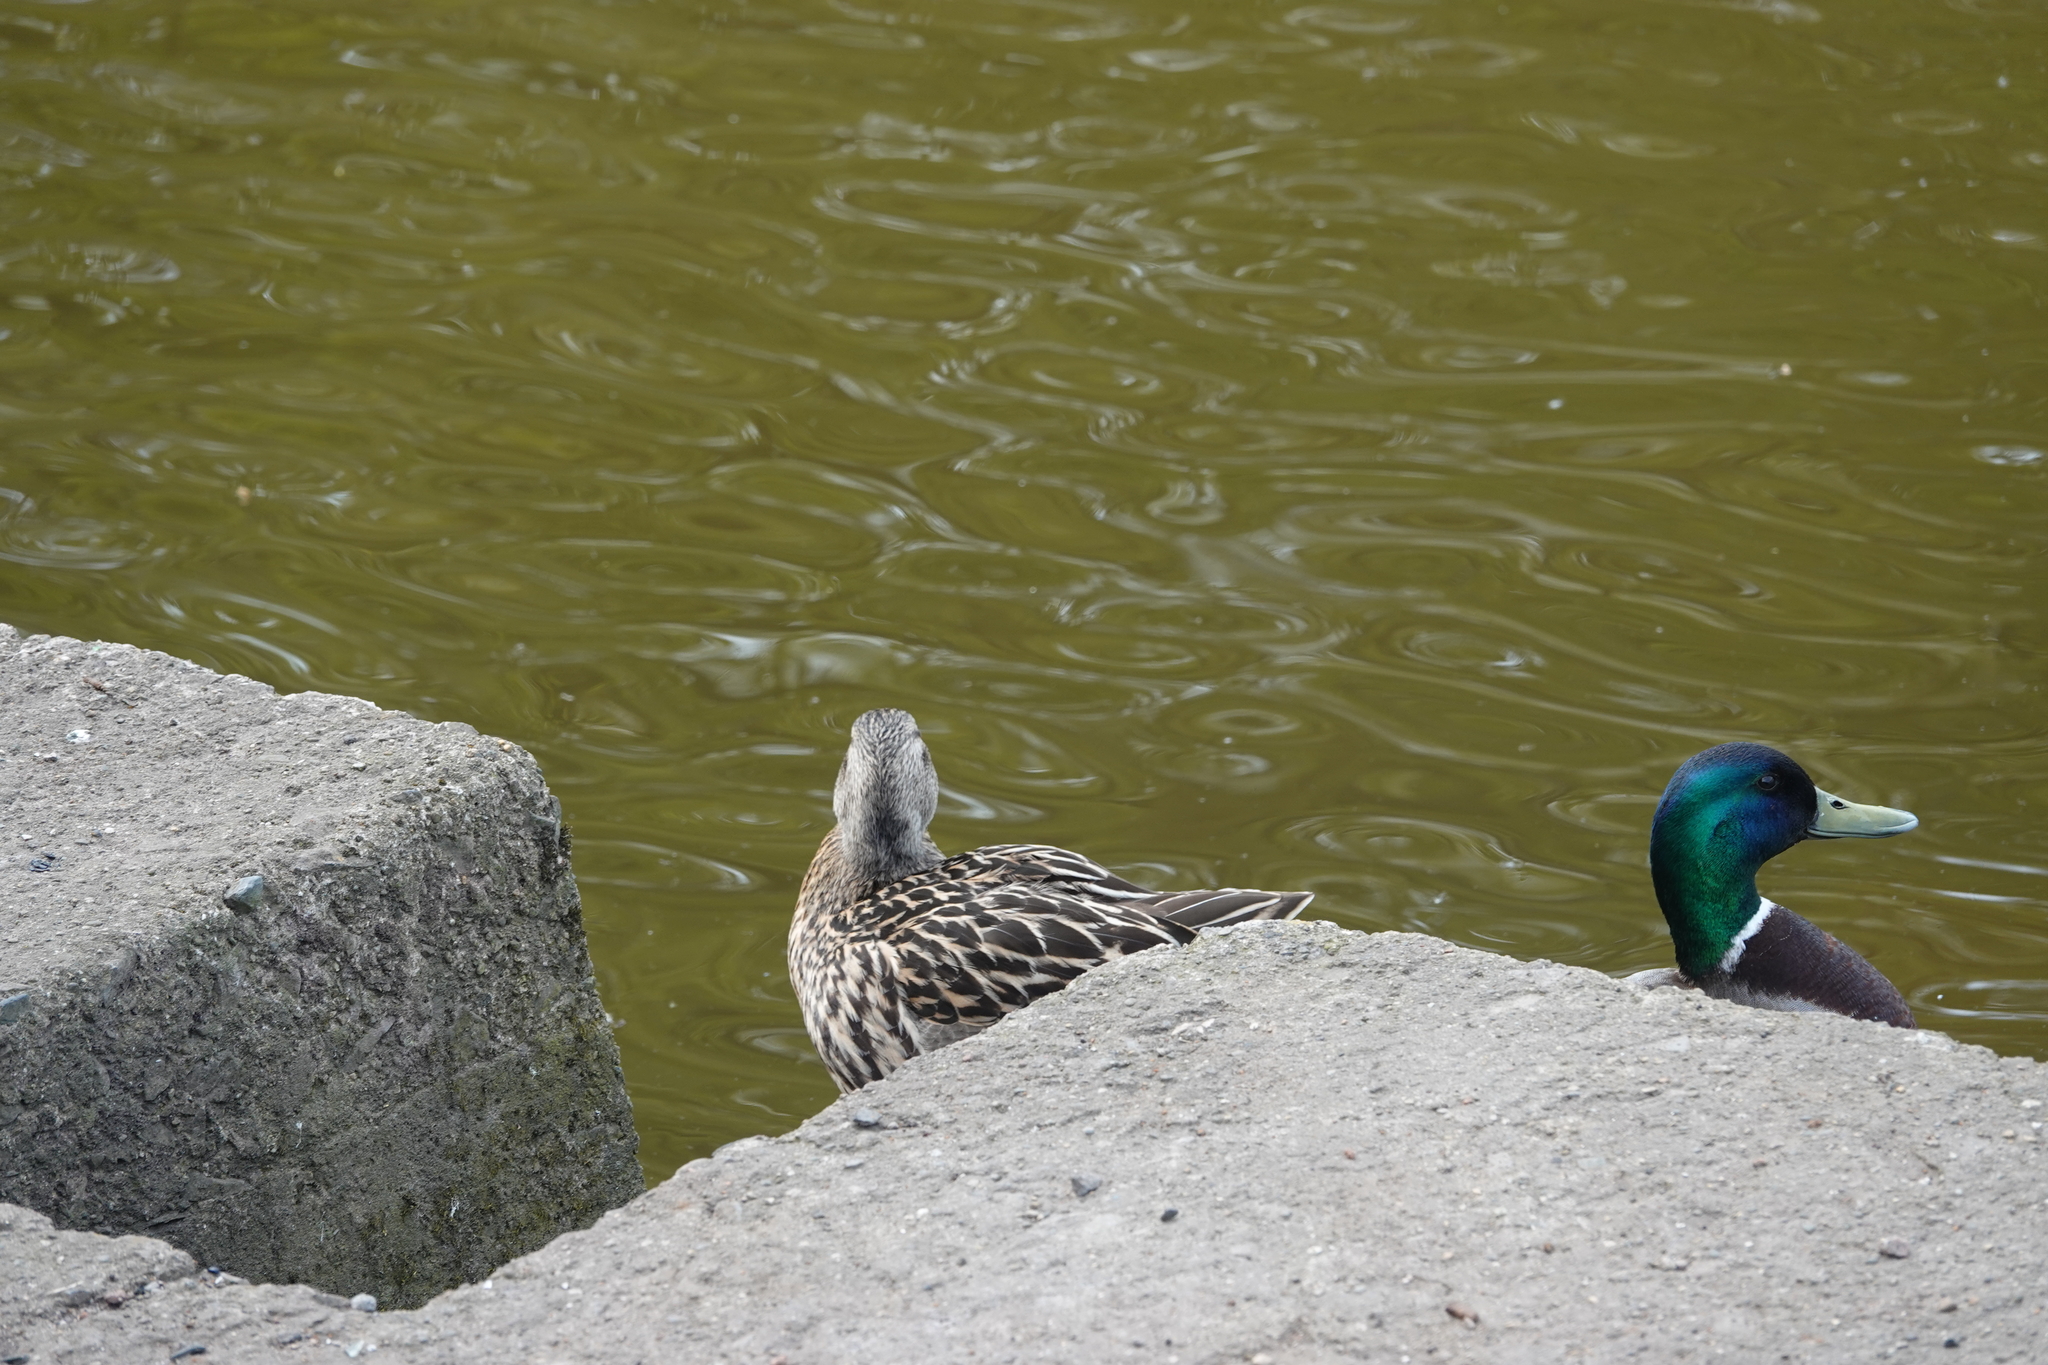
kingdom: Animalia
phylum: Chordata
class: Aves
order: Anseriformes
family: Anatidae
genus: Anas
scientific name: Anas platyrhynchos
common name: Mallard
